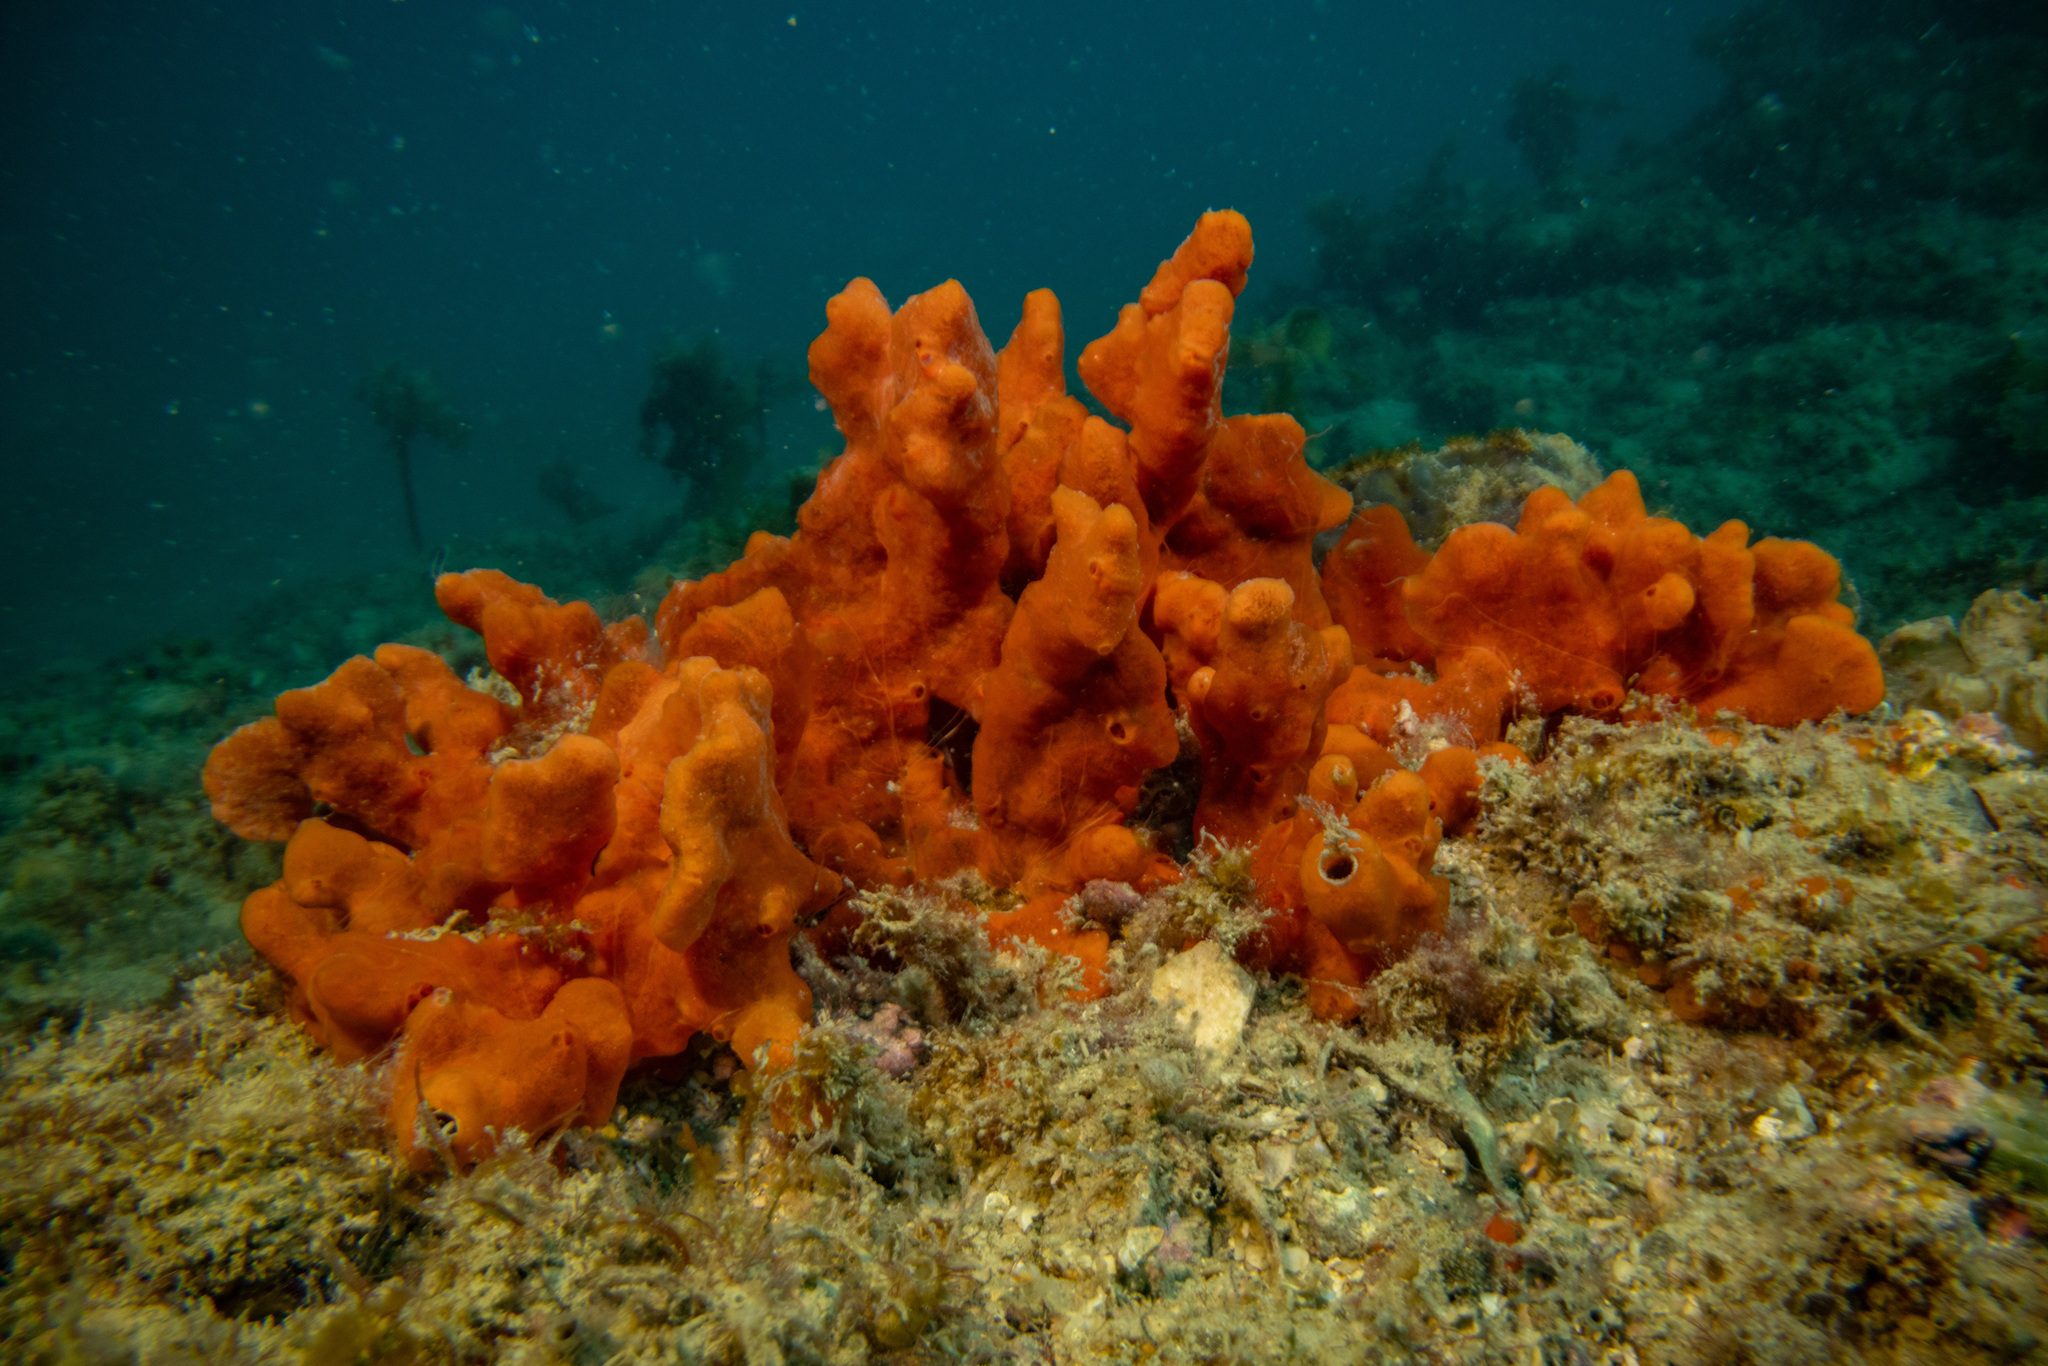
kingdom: Animalia
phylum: Porifera
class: Demospongiae
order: Poecilosclerida
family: Crellidae
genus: Crella
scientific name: Crella incrustans
